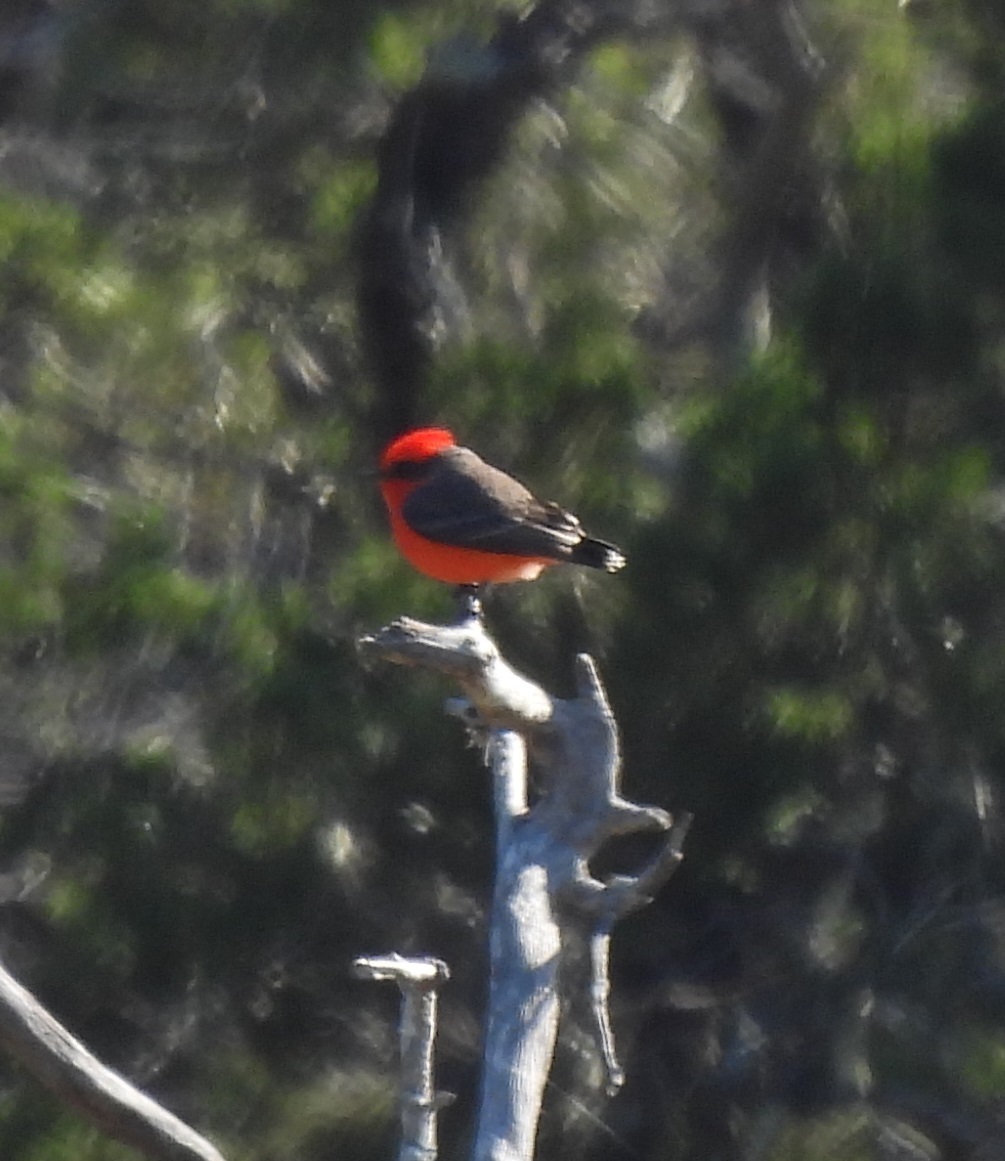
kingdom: Animalia
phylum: Chordata
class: Aves
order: Passeriformes
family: Tyrannidae
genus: Pyrocephalus
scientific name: Pyrocephalus rubinus
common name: Vermilion flycatcher
